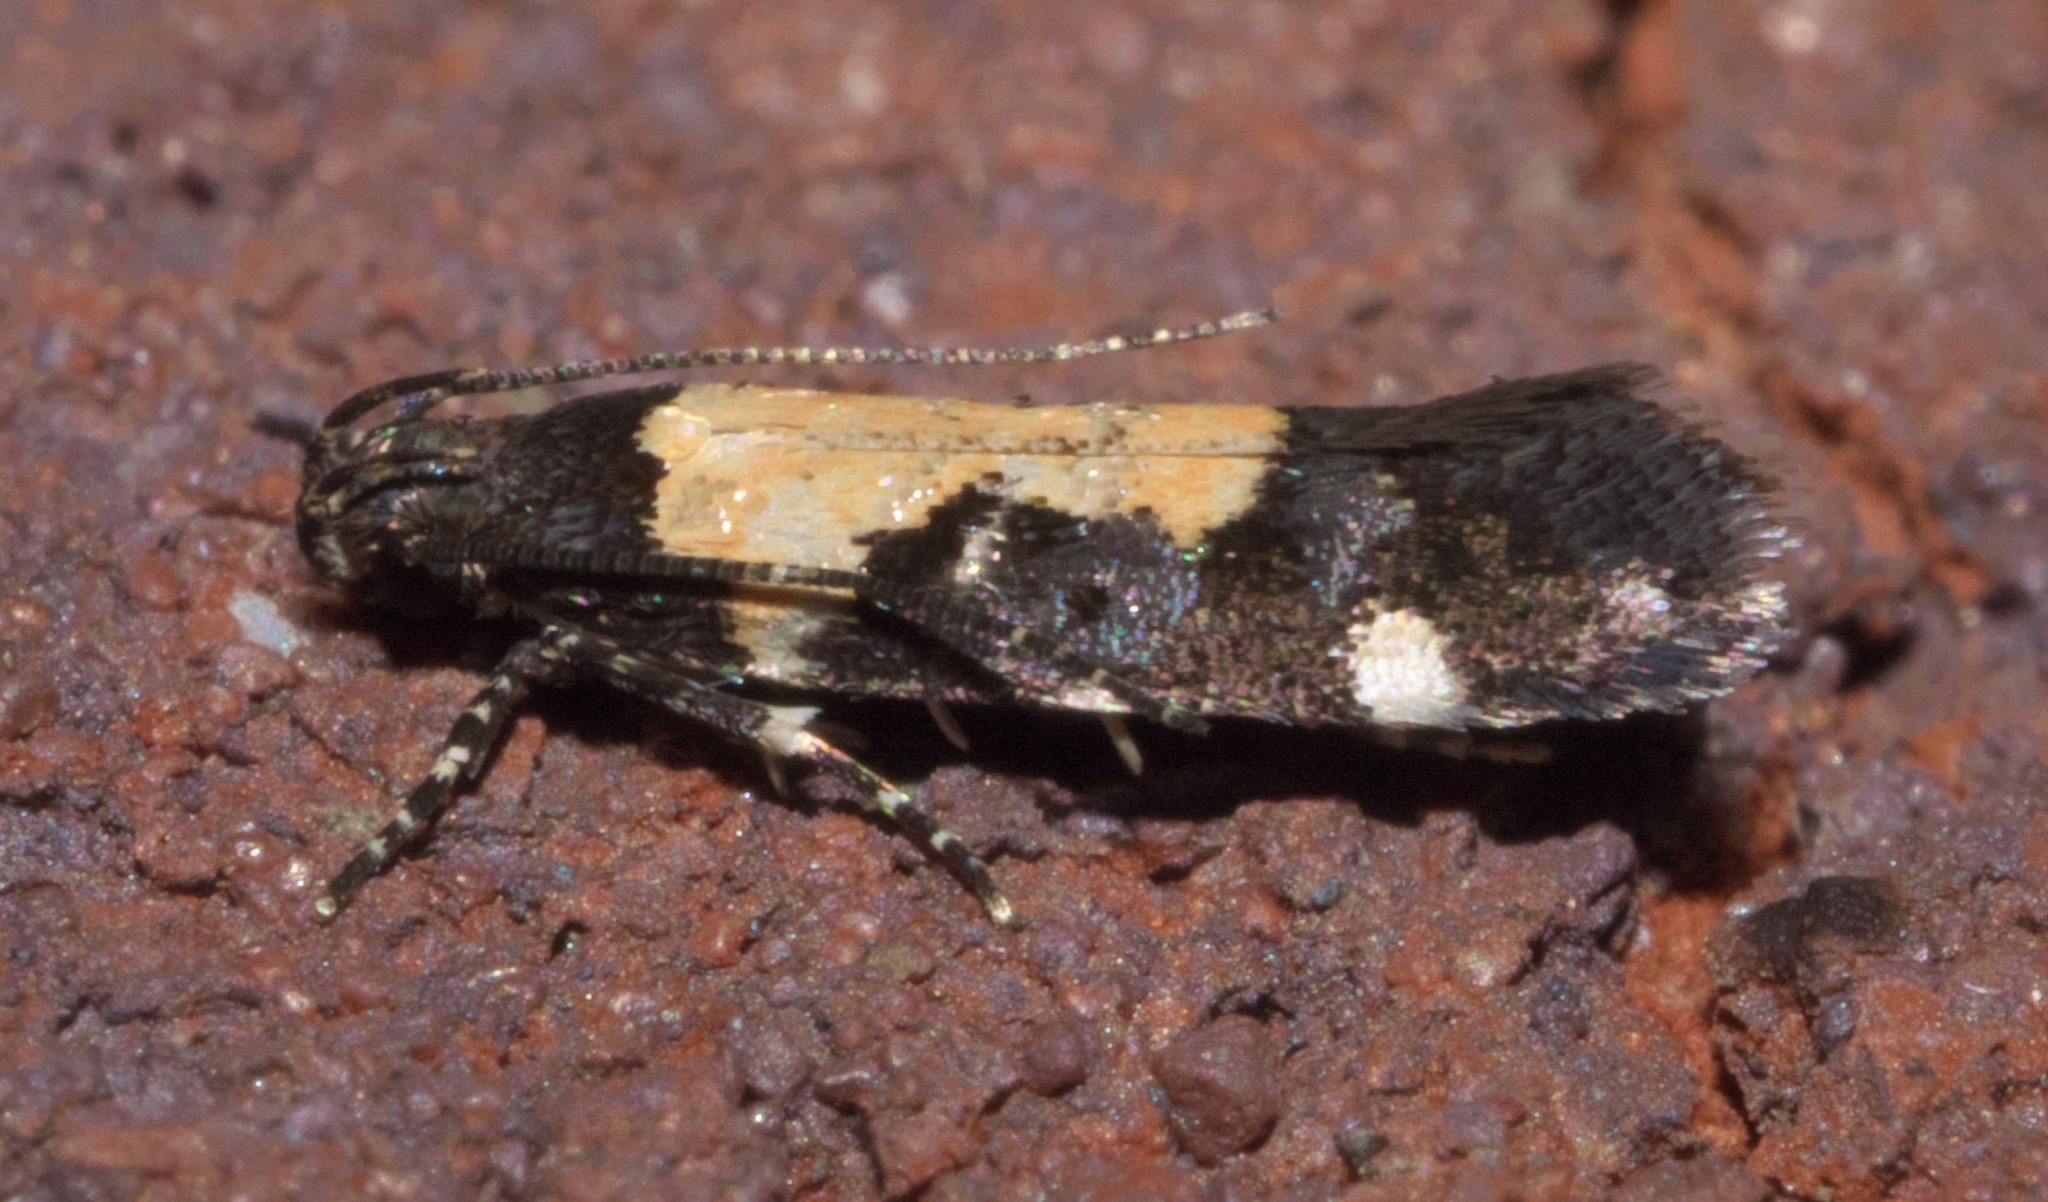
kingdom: Animalia
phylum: Arthropoda
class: Insecta
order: Lepidoptera
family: Gelechiidae
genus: Stegasta
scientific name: Stegasta bosqueella
